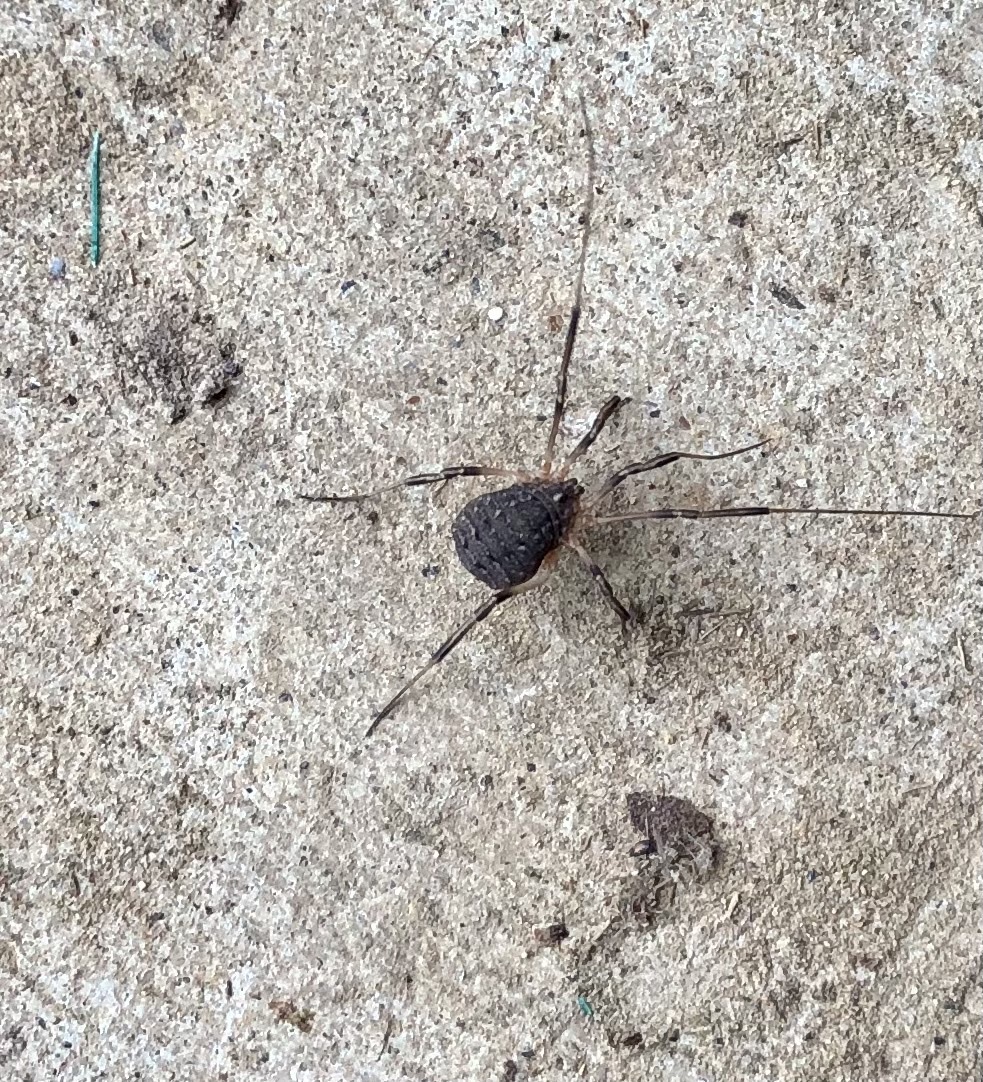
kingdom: Animalia
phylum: Arthropoda
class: Arachnida
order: Opiliones
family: Sclerosomatidae
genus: Eumesosoma
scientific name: Eumesosoma roeweri
